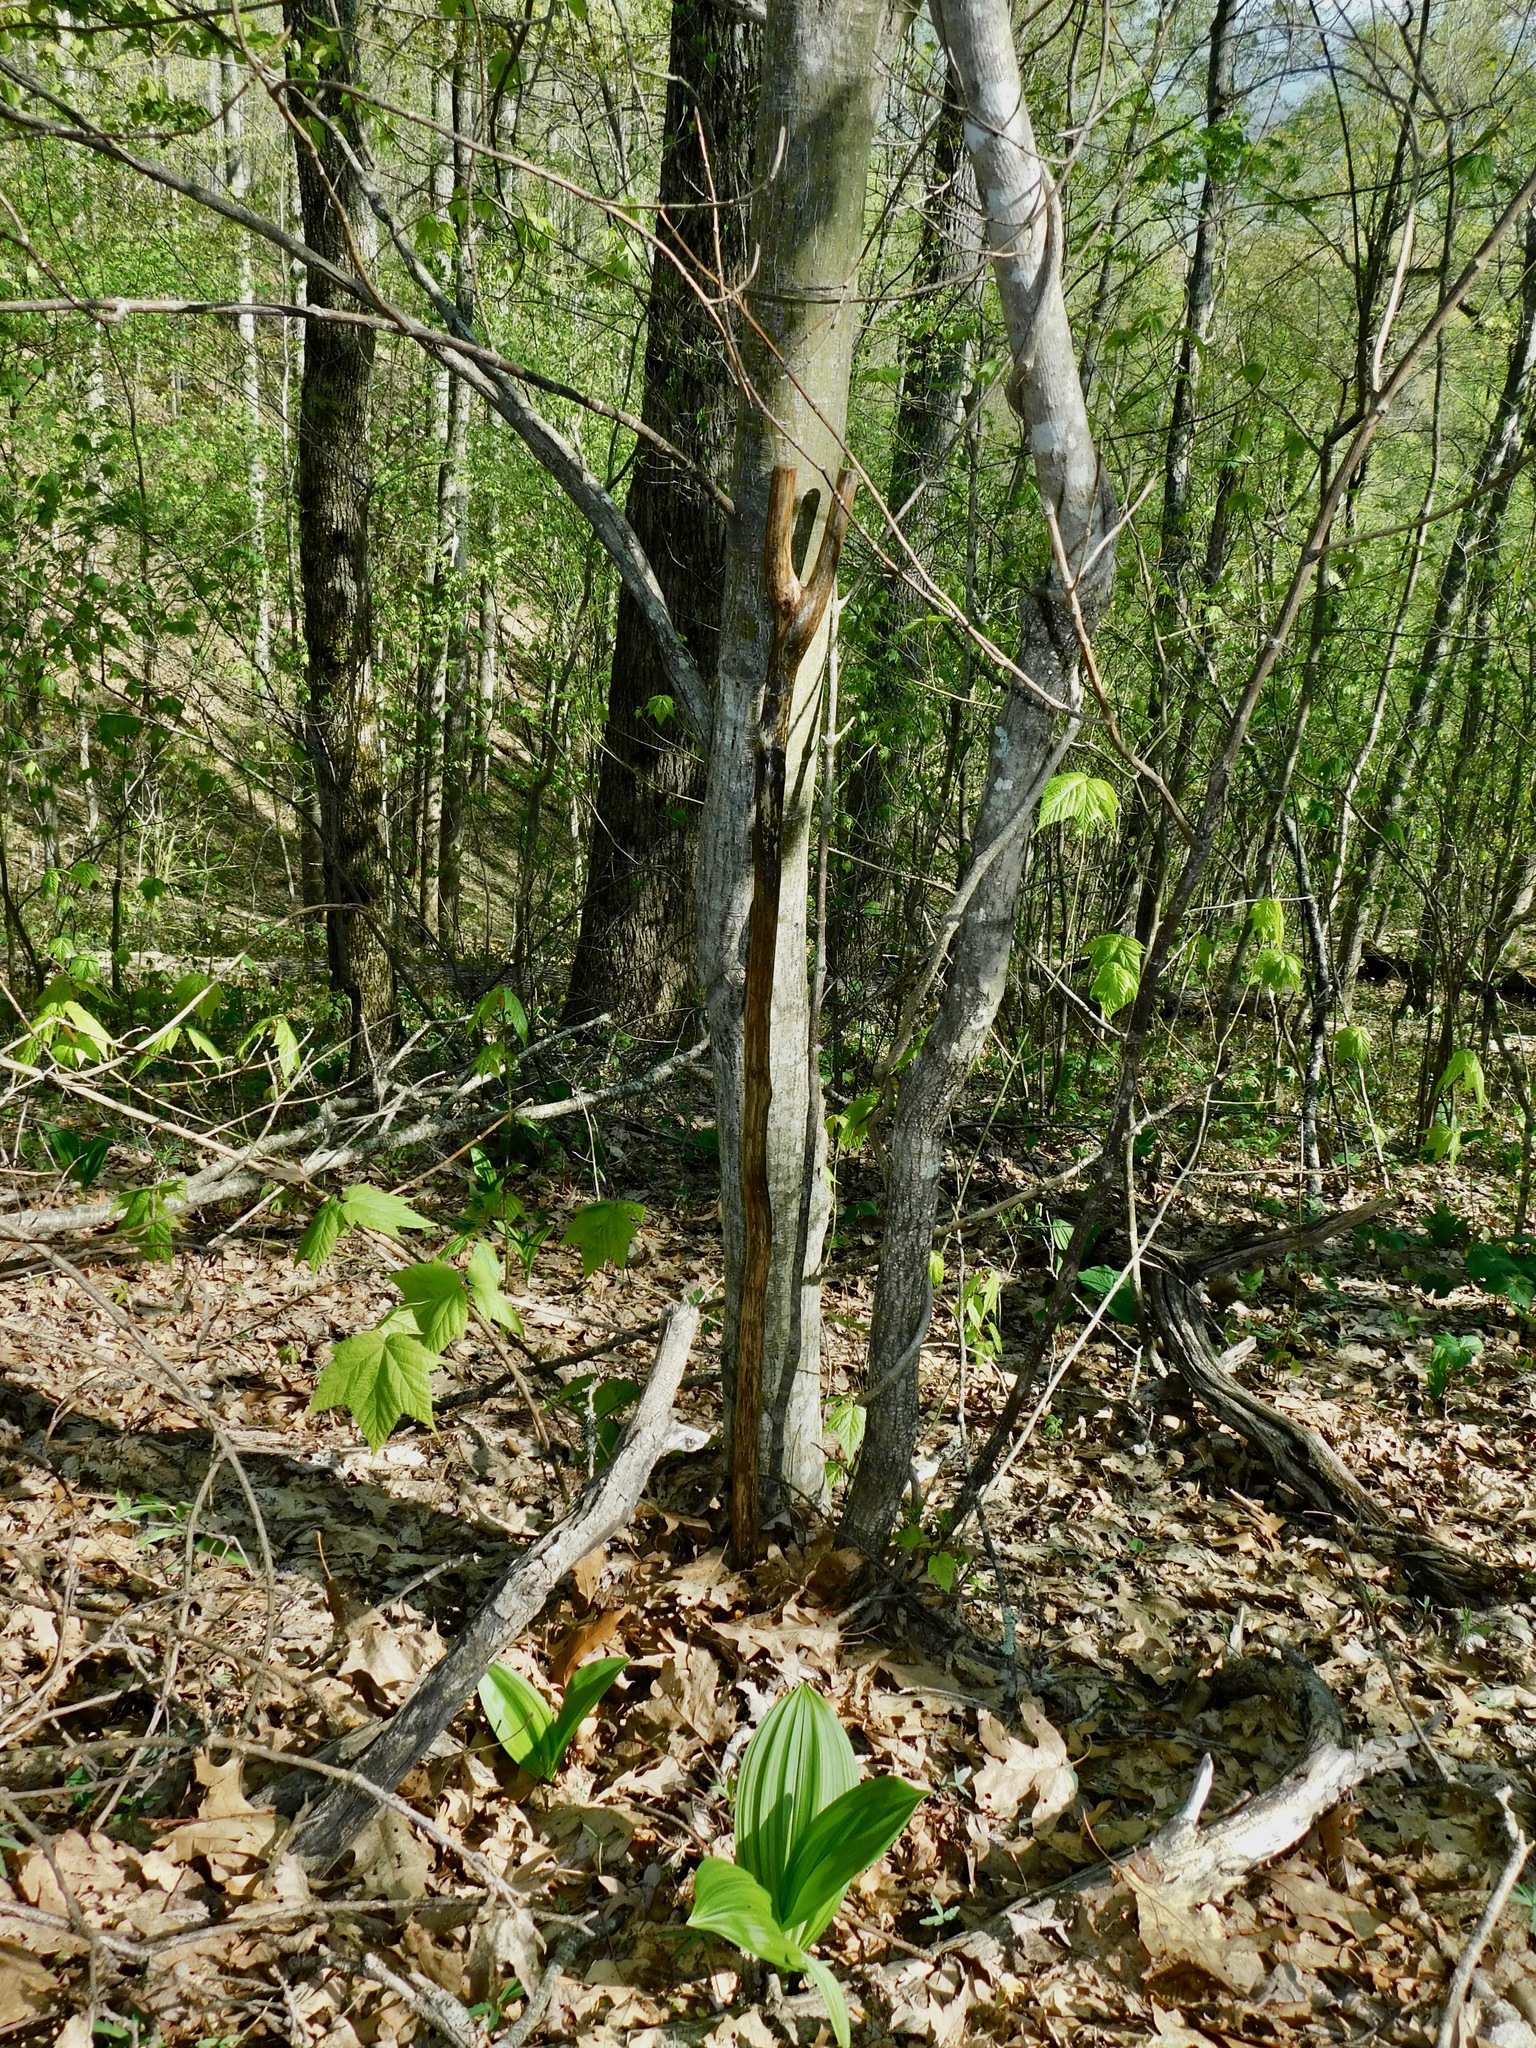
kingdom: Plantae
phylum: Tracheophyta
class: Magnoliopsida
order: Sapindales
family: Sapindaceae
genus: Acer
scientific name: Acer pensylvanicum
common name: Moosewood
